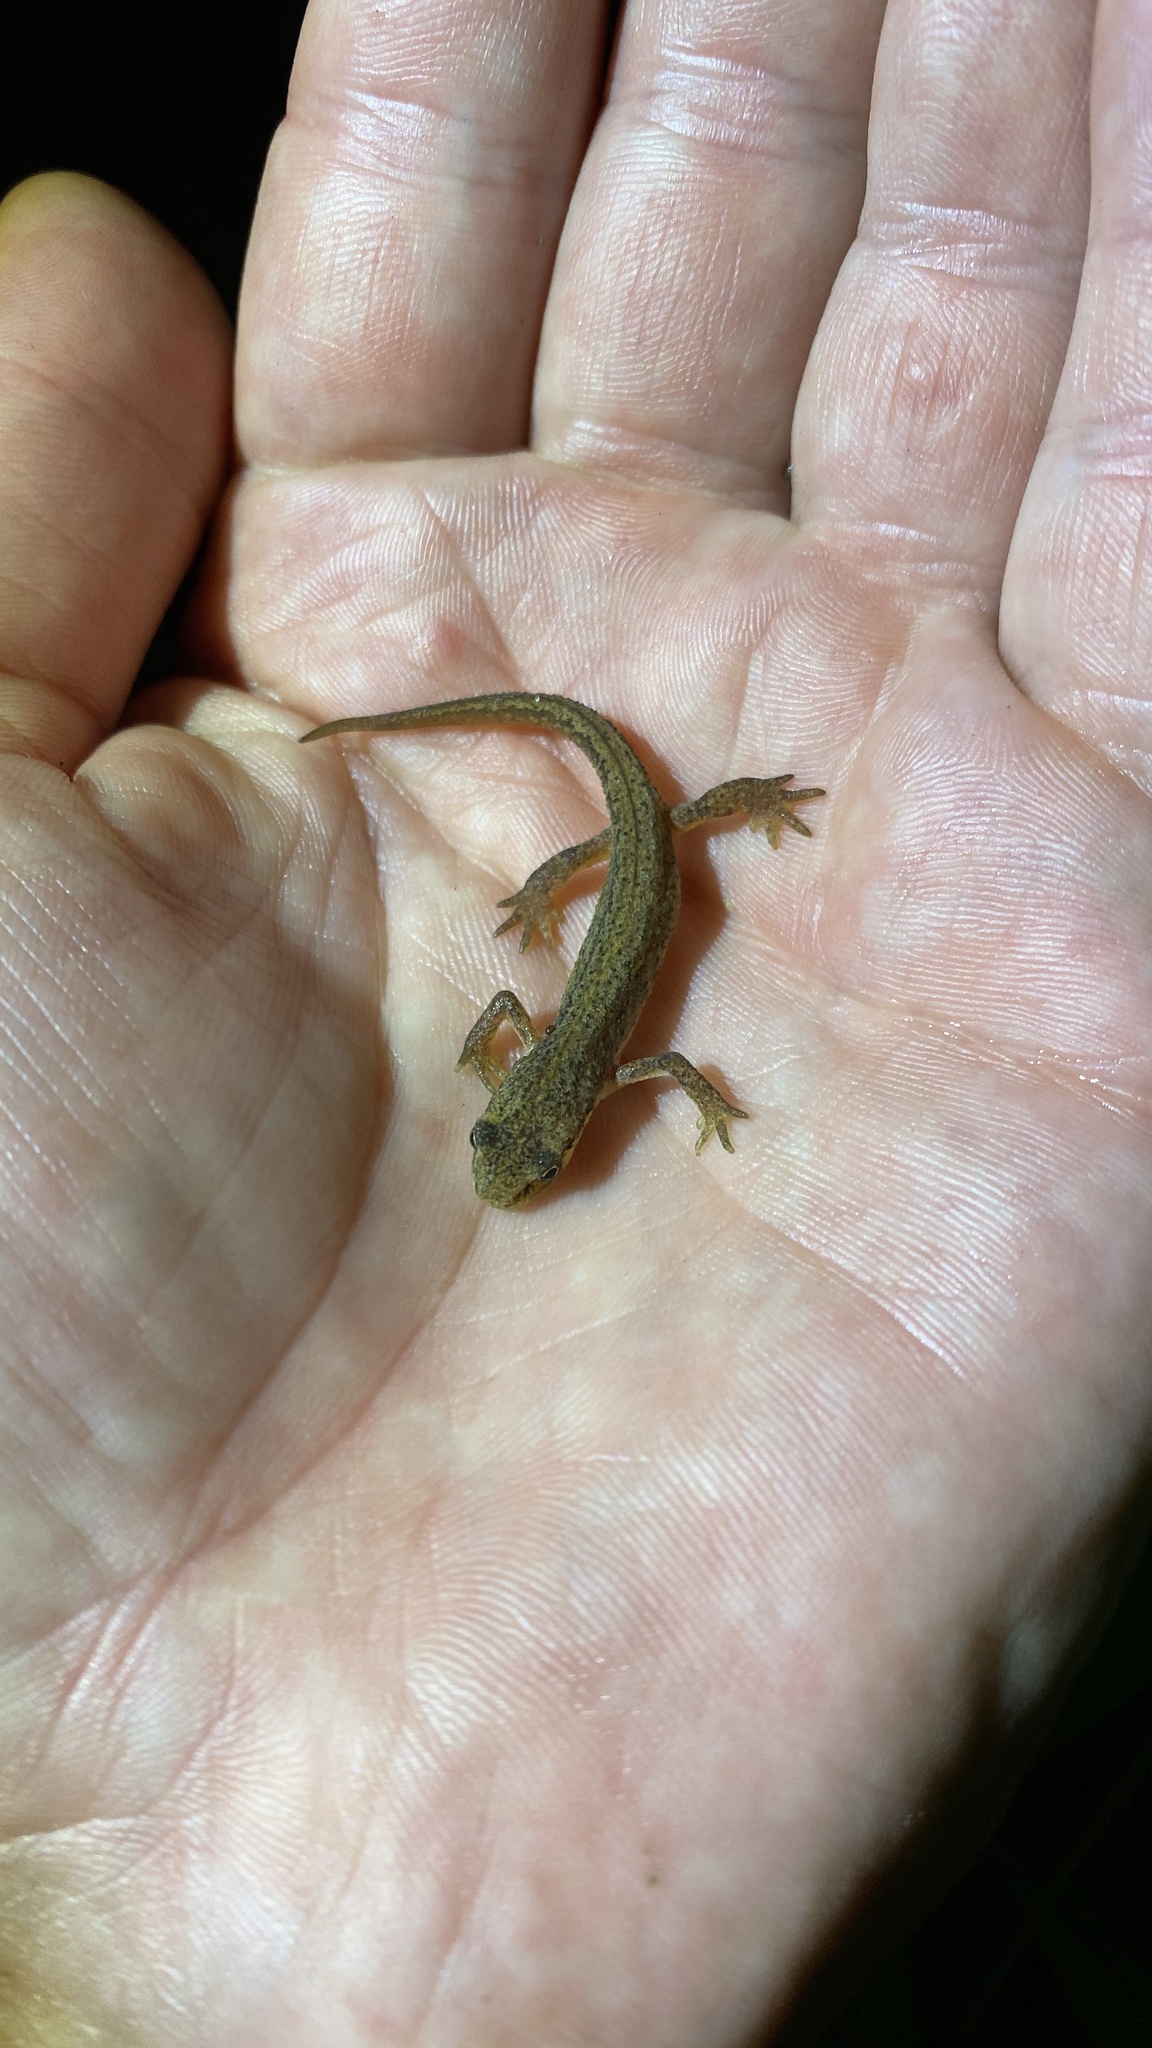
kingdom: Animalia
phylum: Chordata
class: Amphibia
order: Caudata
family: Salamandridae
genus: Lissotriton
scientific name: Lissotriton vulgaris
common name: Smooth newt
